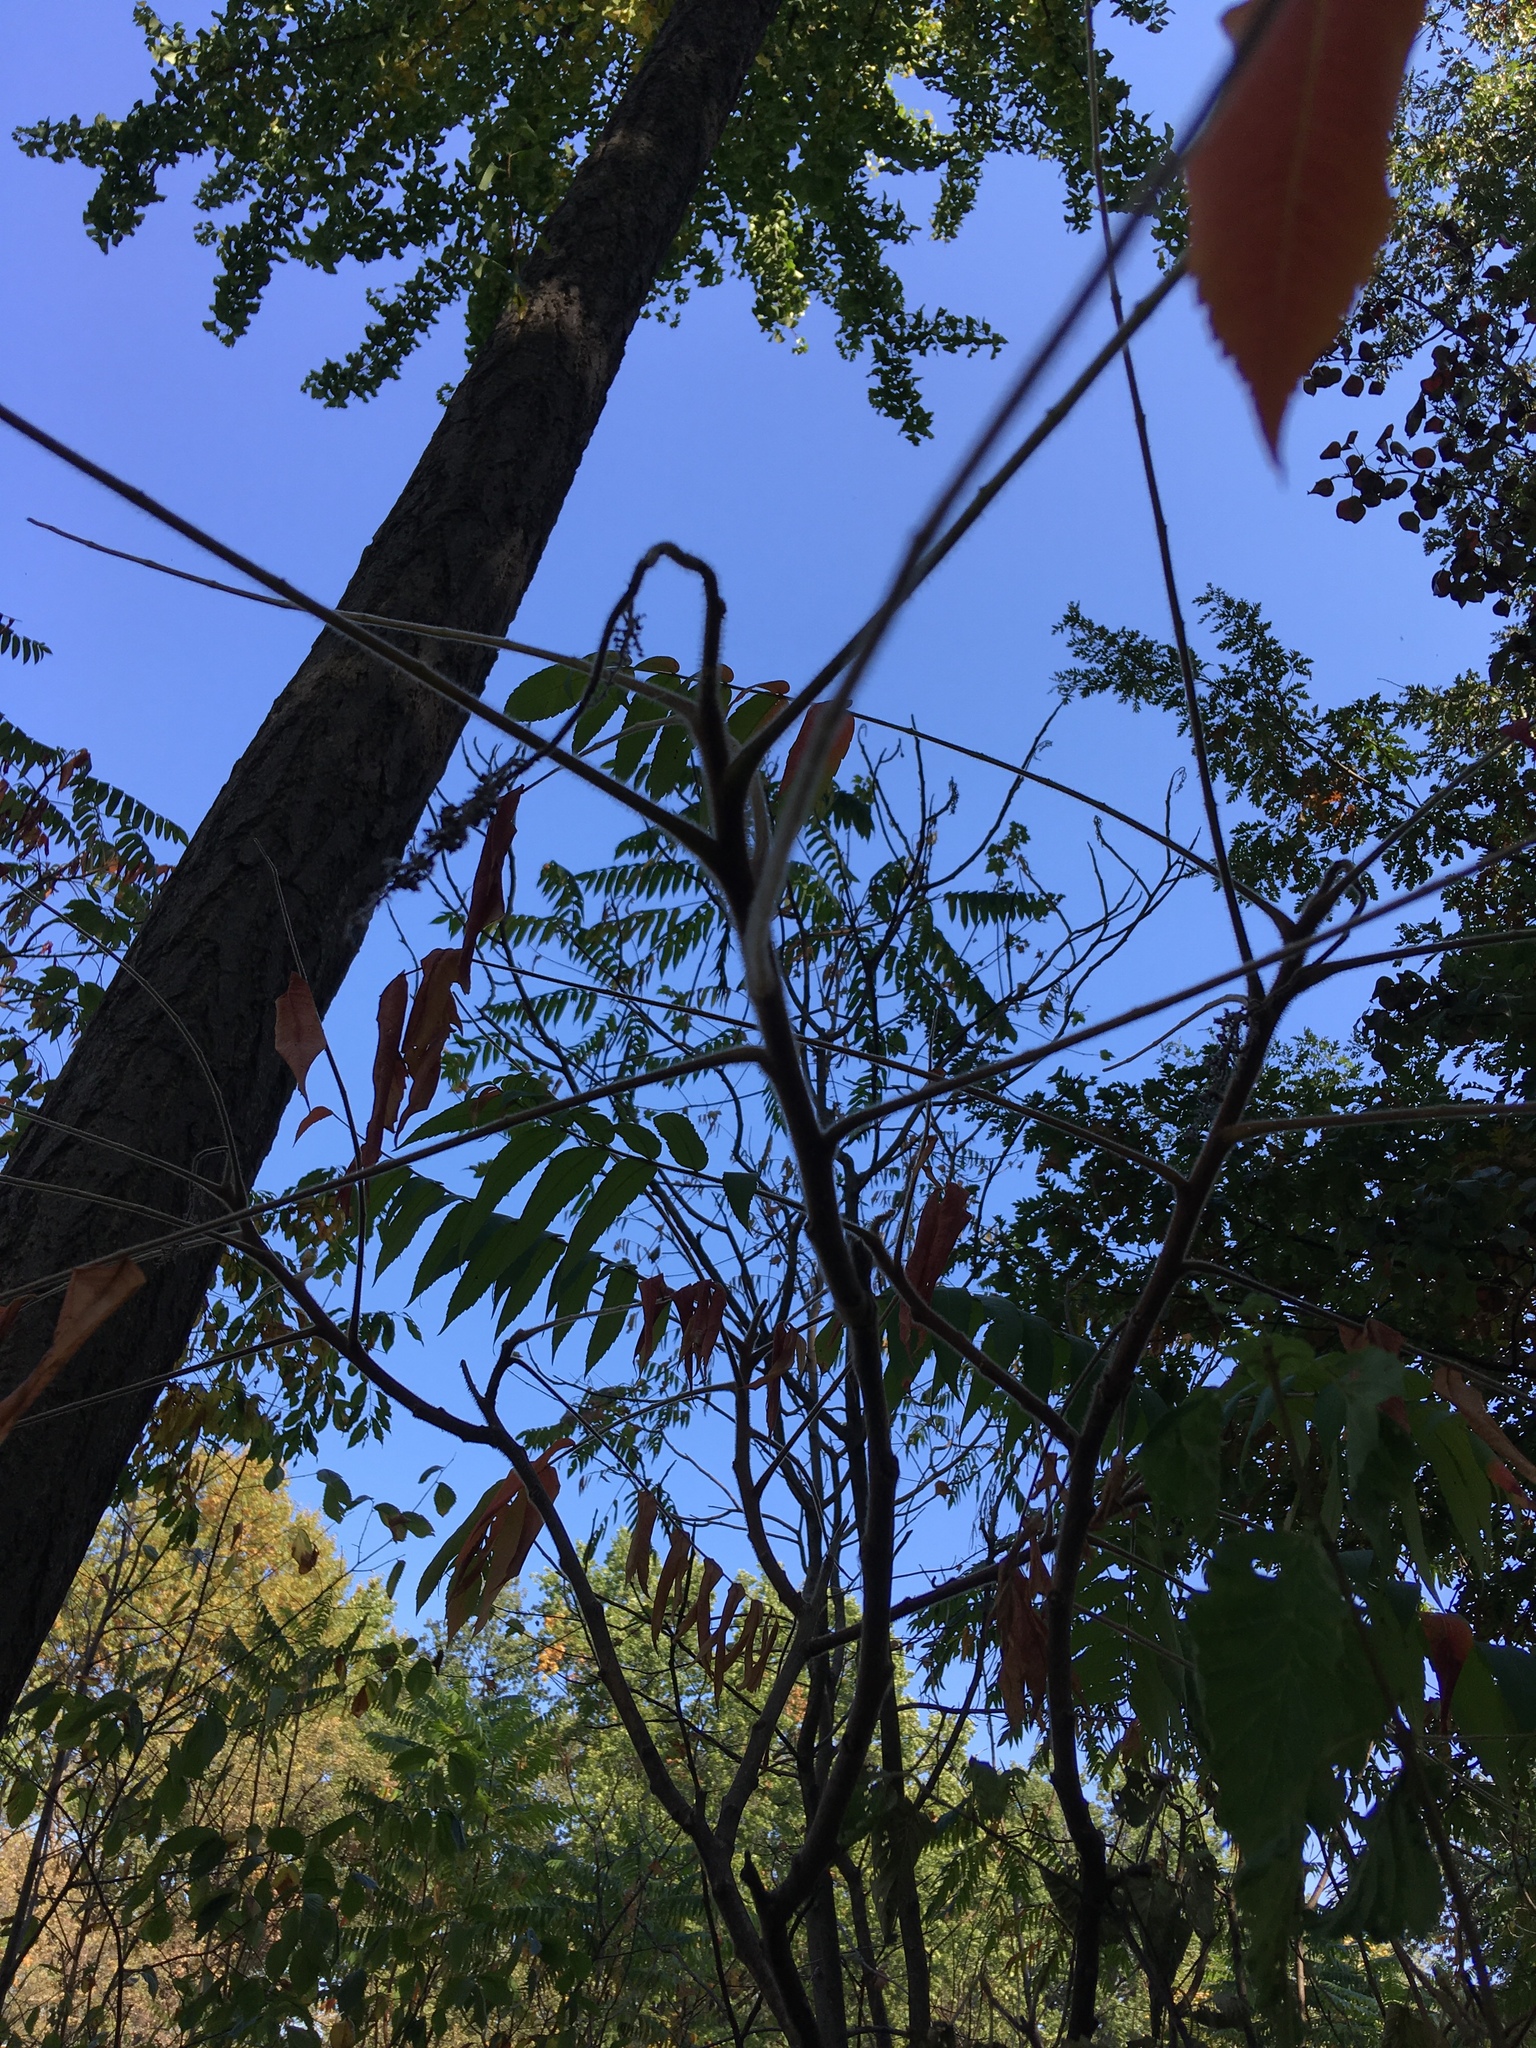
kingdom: Plantae
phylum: Tracheophyta
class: Magnoliopsida
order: Sapindales
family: Anacardiaceae
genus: Rhus
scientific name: Rhus typhina
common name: Staghorn sumac
